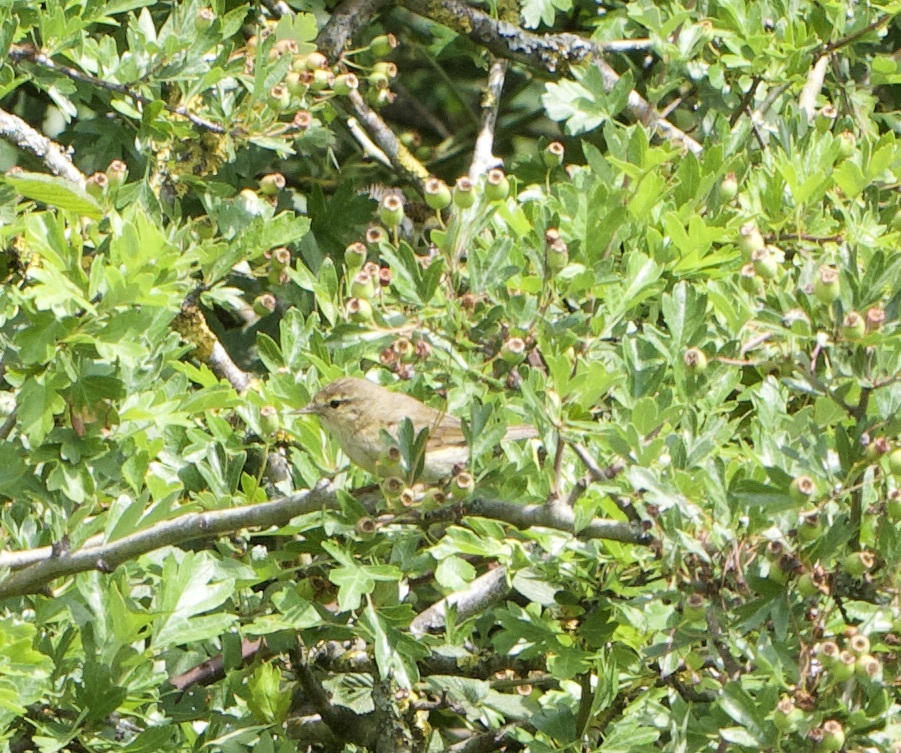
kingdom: Animalia
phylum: Chordata
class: Aves
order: Passeriformes
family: Phylloscopidae
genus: Phylloscopus
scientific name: Phylloscopus collybita
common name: Common chiffchaff
